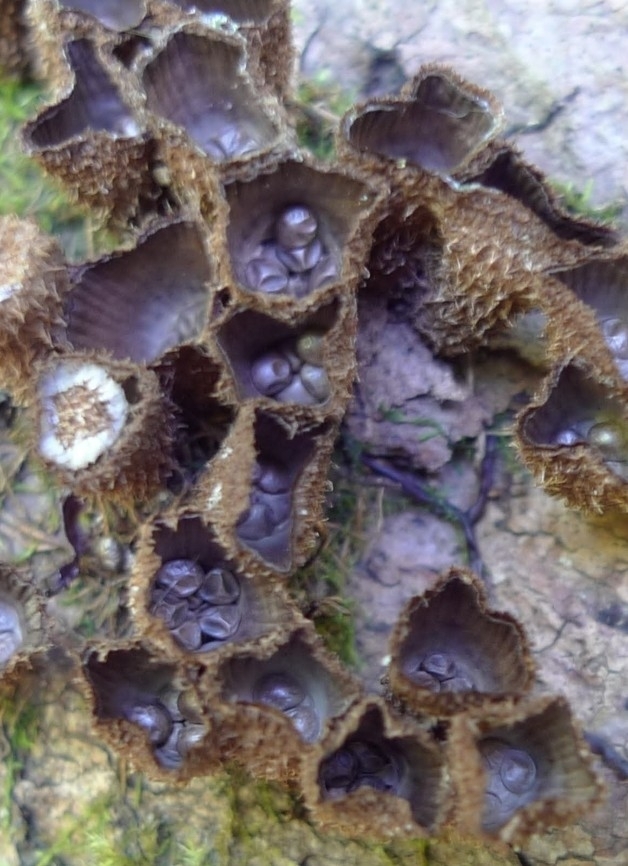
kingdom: Fungi
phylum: Basidiomycota
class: Agaricomycetes
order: Agaricales
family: Agaricaceae
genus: Cyathus
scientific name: Cyathus striatus
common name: Fluted bird's nest
